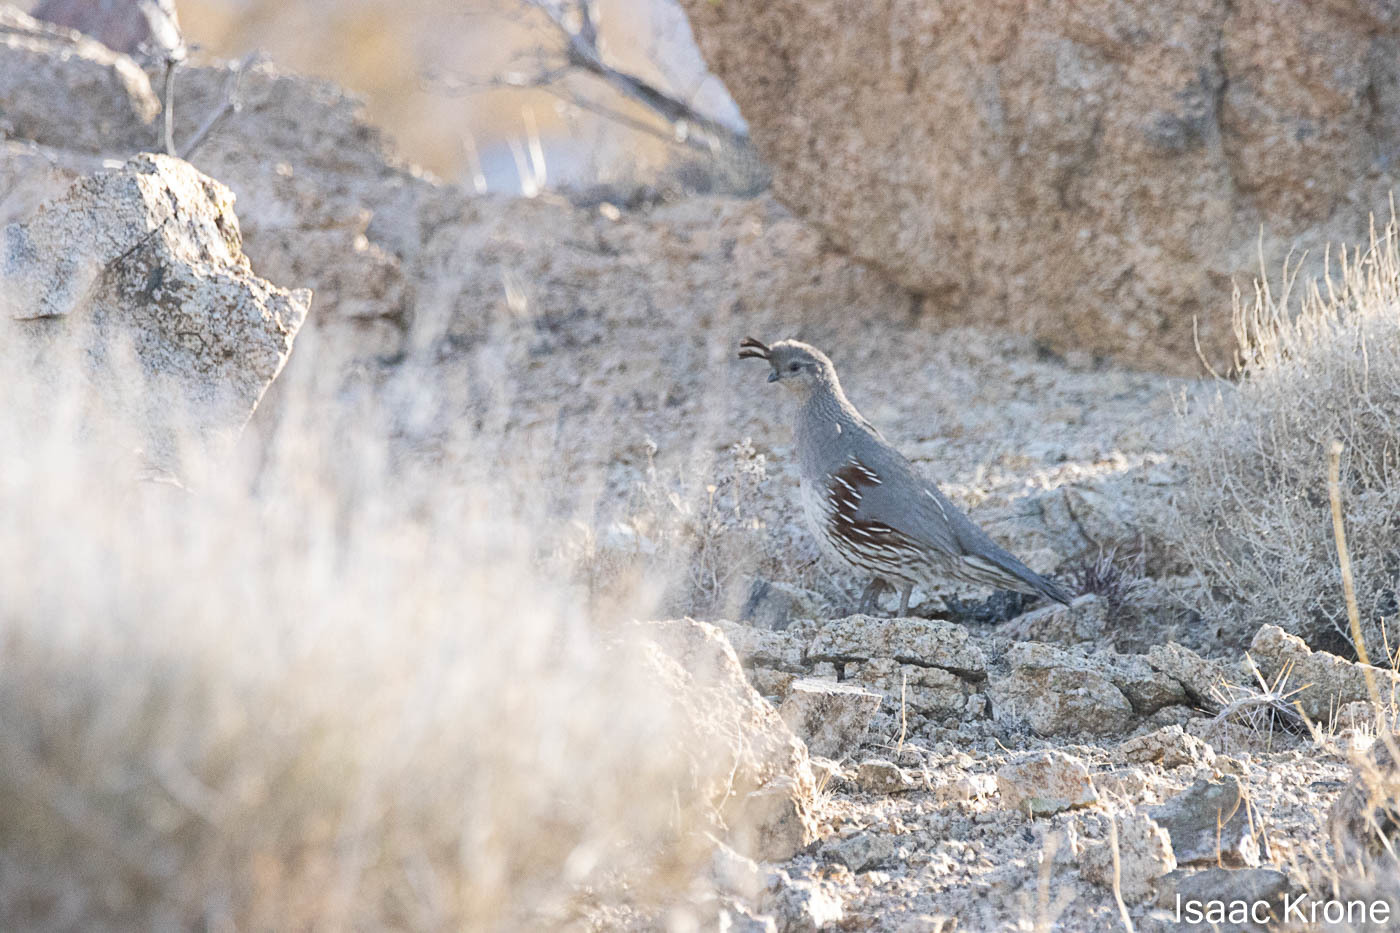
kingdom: Animalia
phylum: Chordata
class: Aves
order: Galliformes
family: Odontophoridae
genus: Callipepla
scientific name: Callipepla gambelii
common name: Gambel's quail
